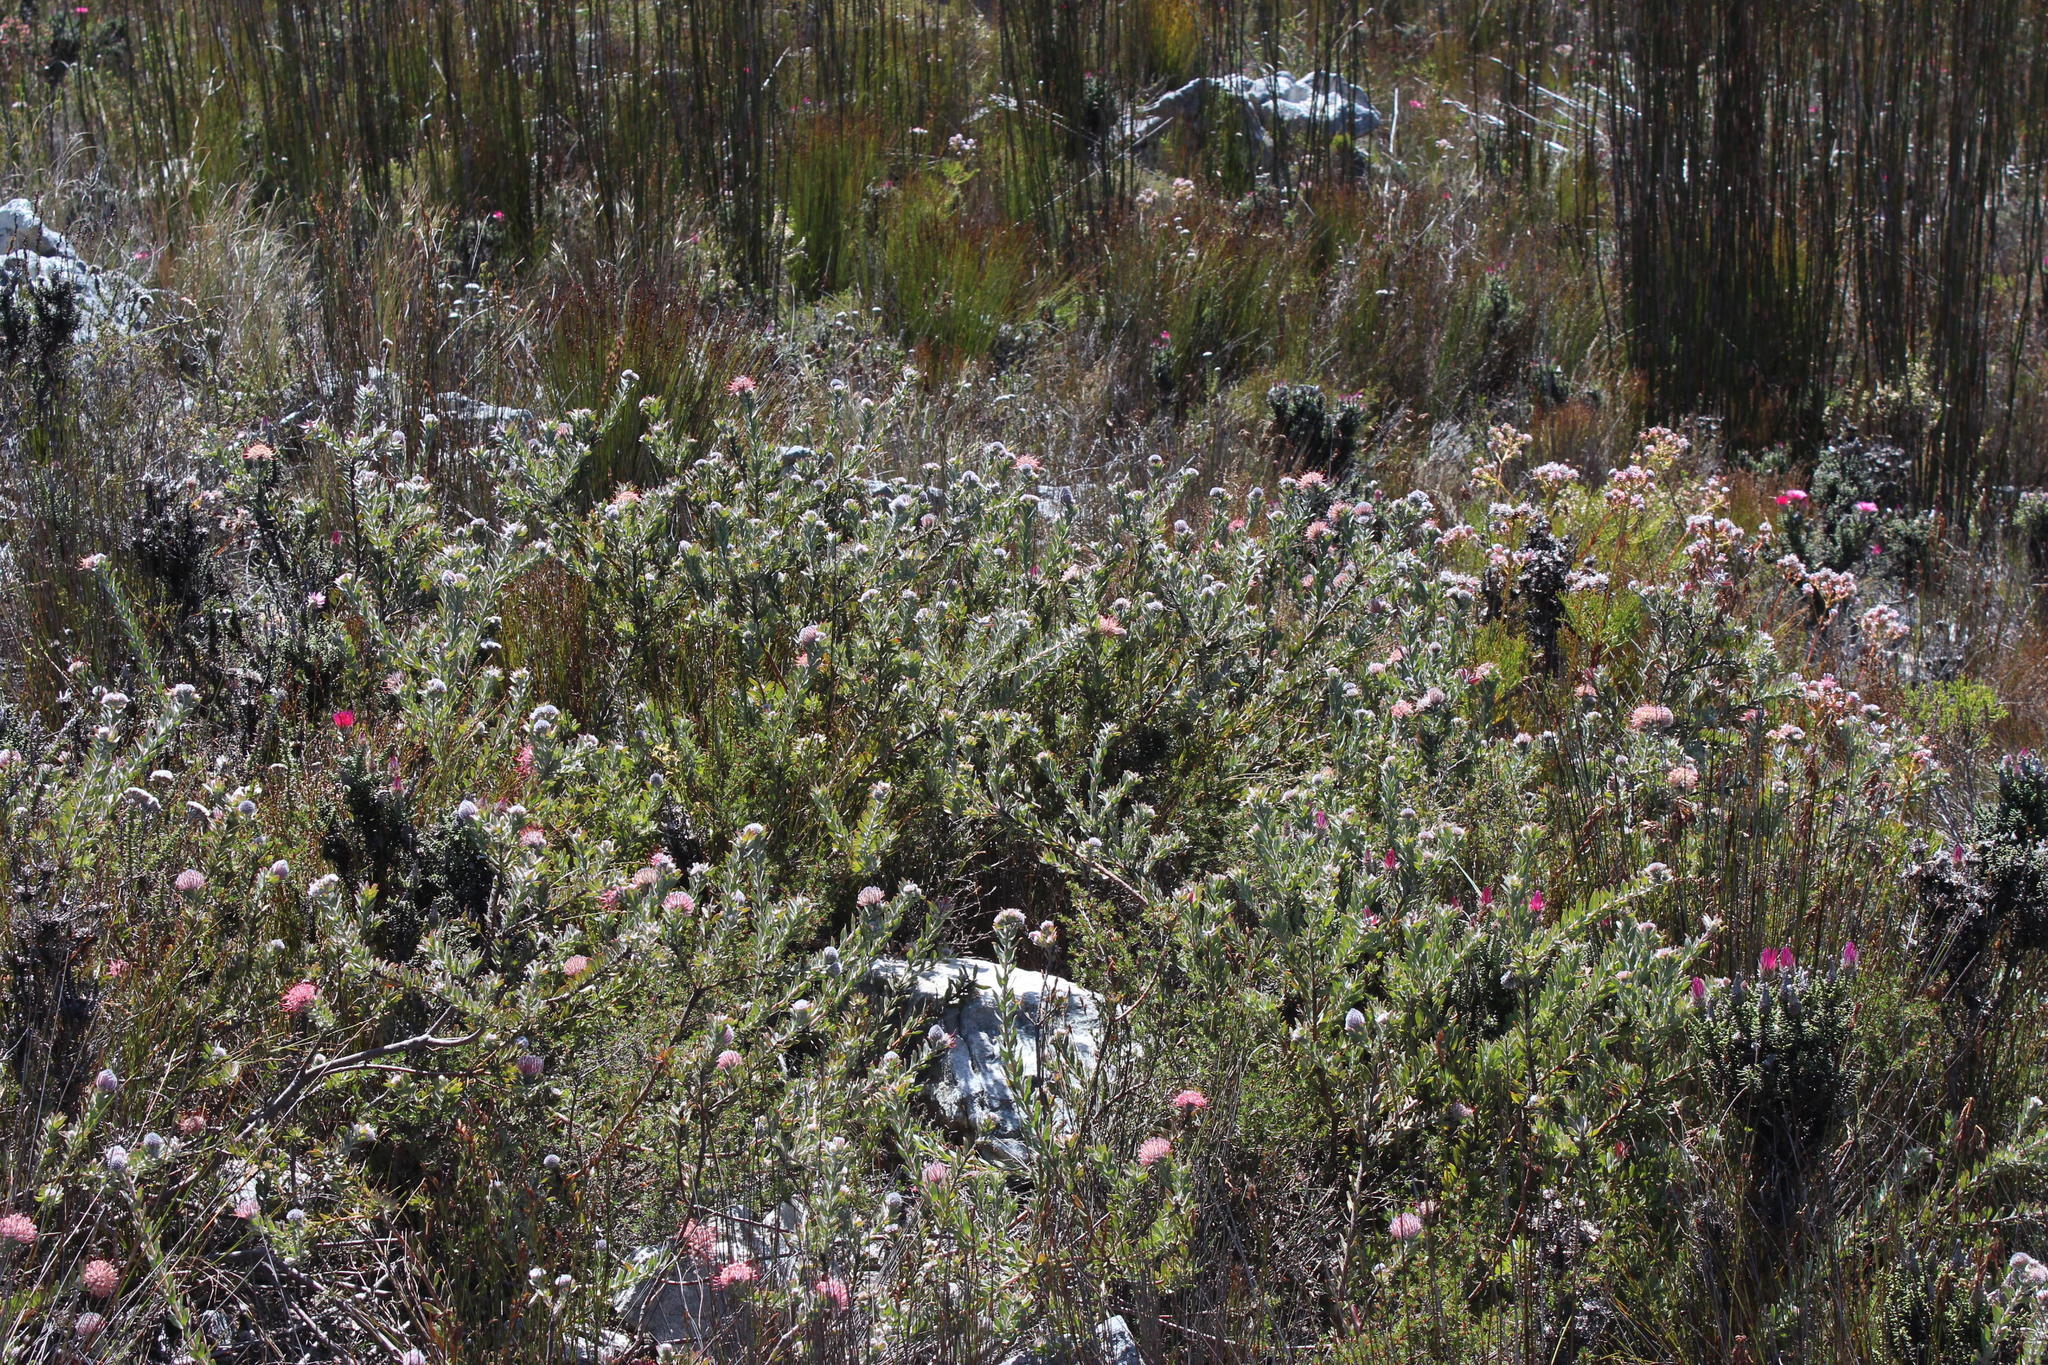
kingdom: Plantae
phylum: Tracheophyta
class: Magnoliopsida
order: Proteales
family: Proteaceae
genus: Leucospermum
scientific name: Leucospermum calligerum
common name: Arid pincushion
